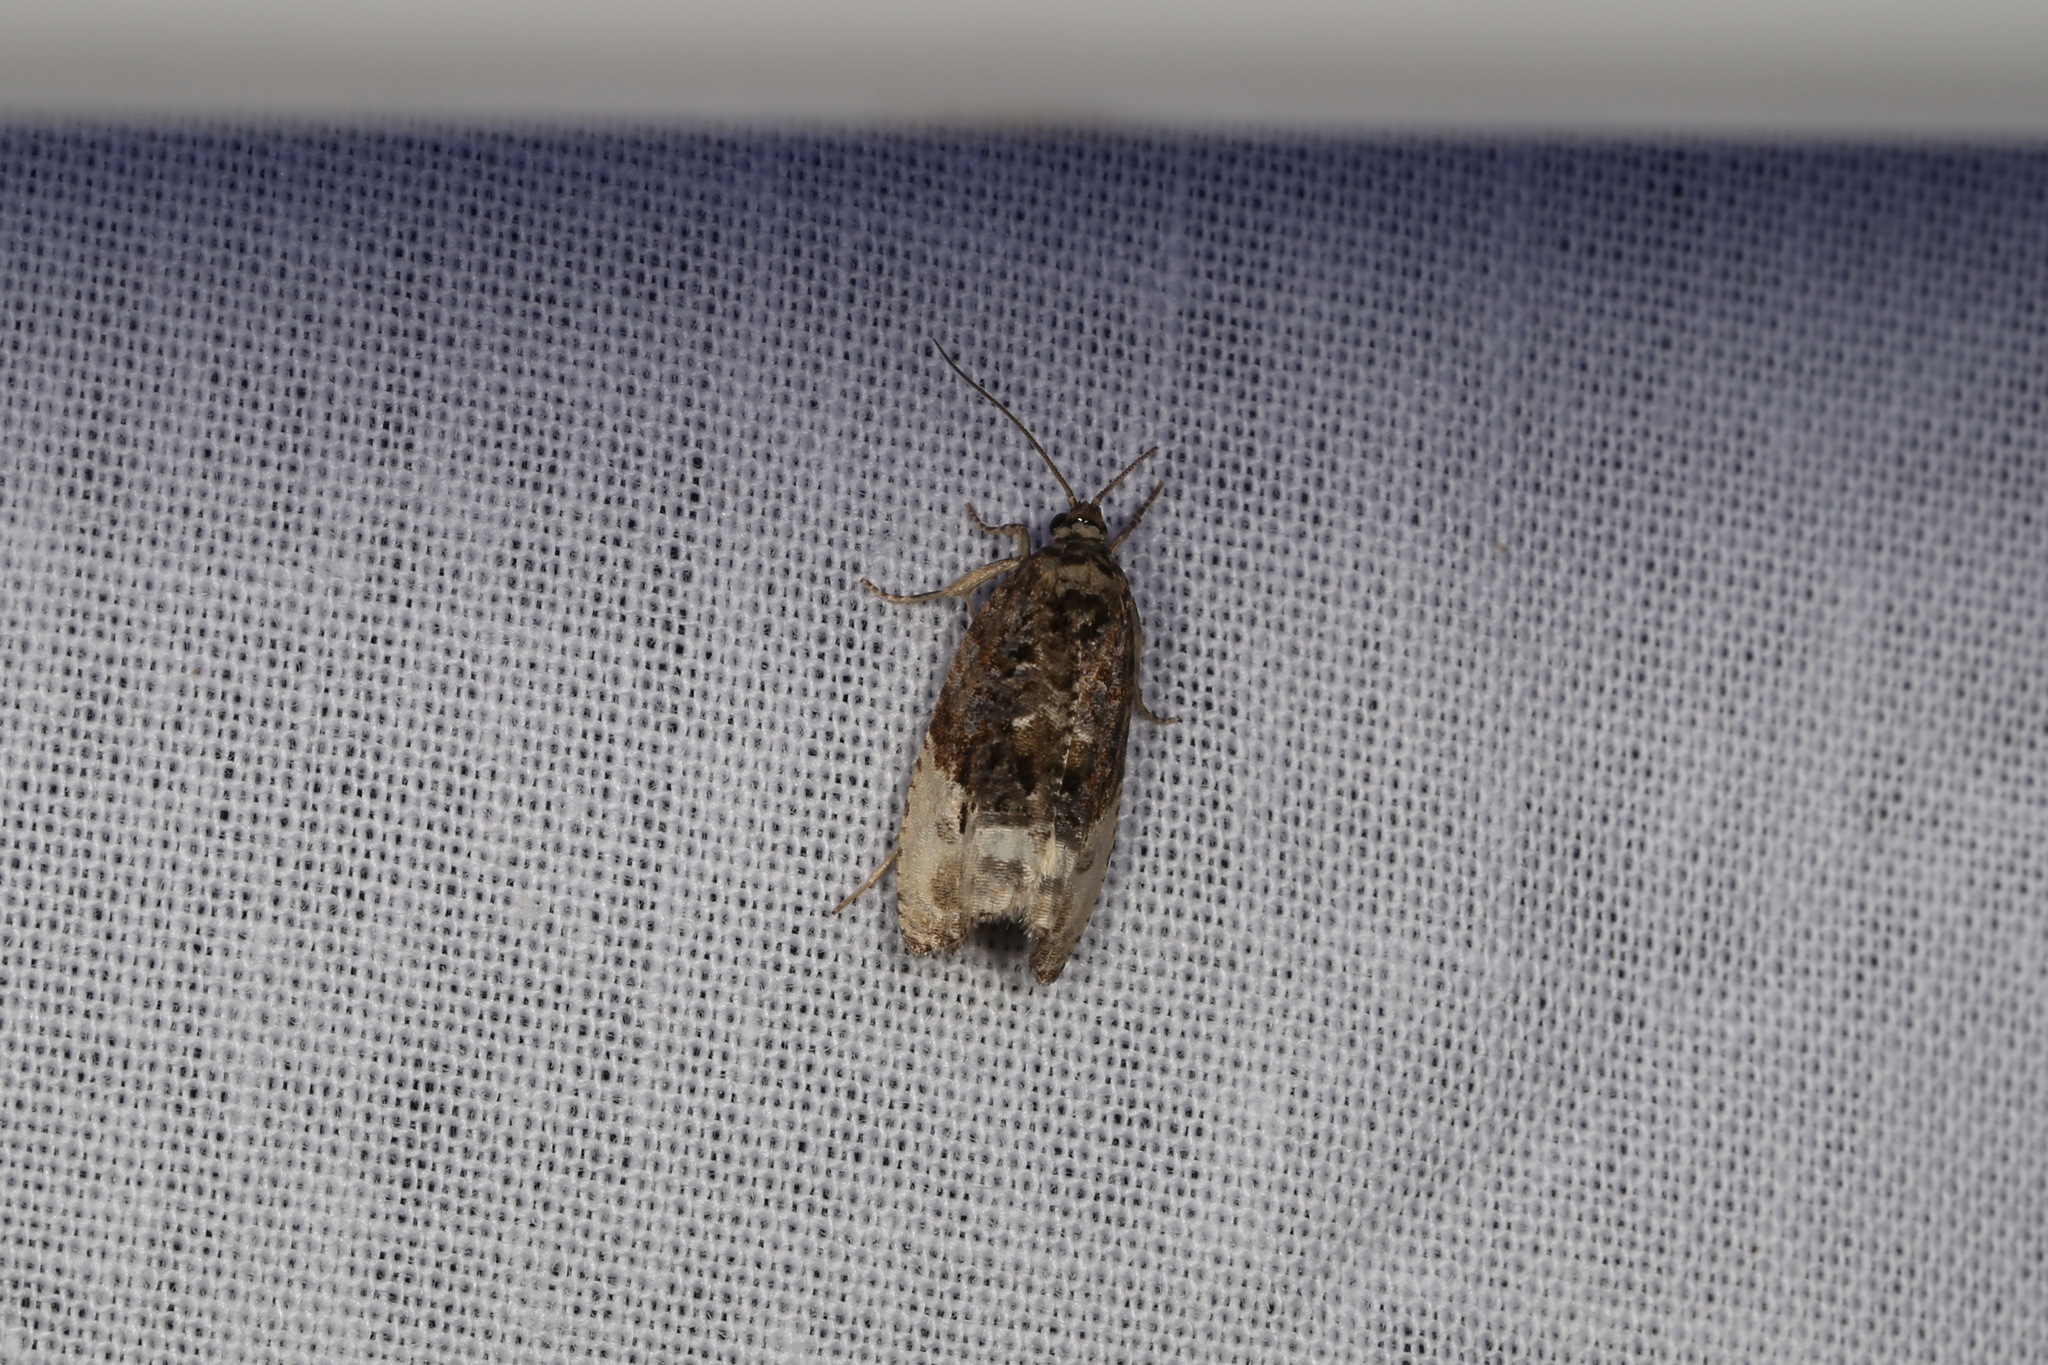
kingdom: Animalia
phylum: Arthropoda
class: Insecta
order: Lepidoptera
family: Tortricidae
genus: Hedya
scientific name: Hedya nubiferana
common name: Marbled orchard tortrix
